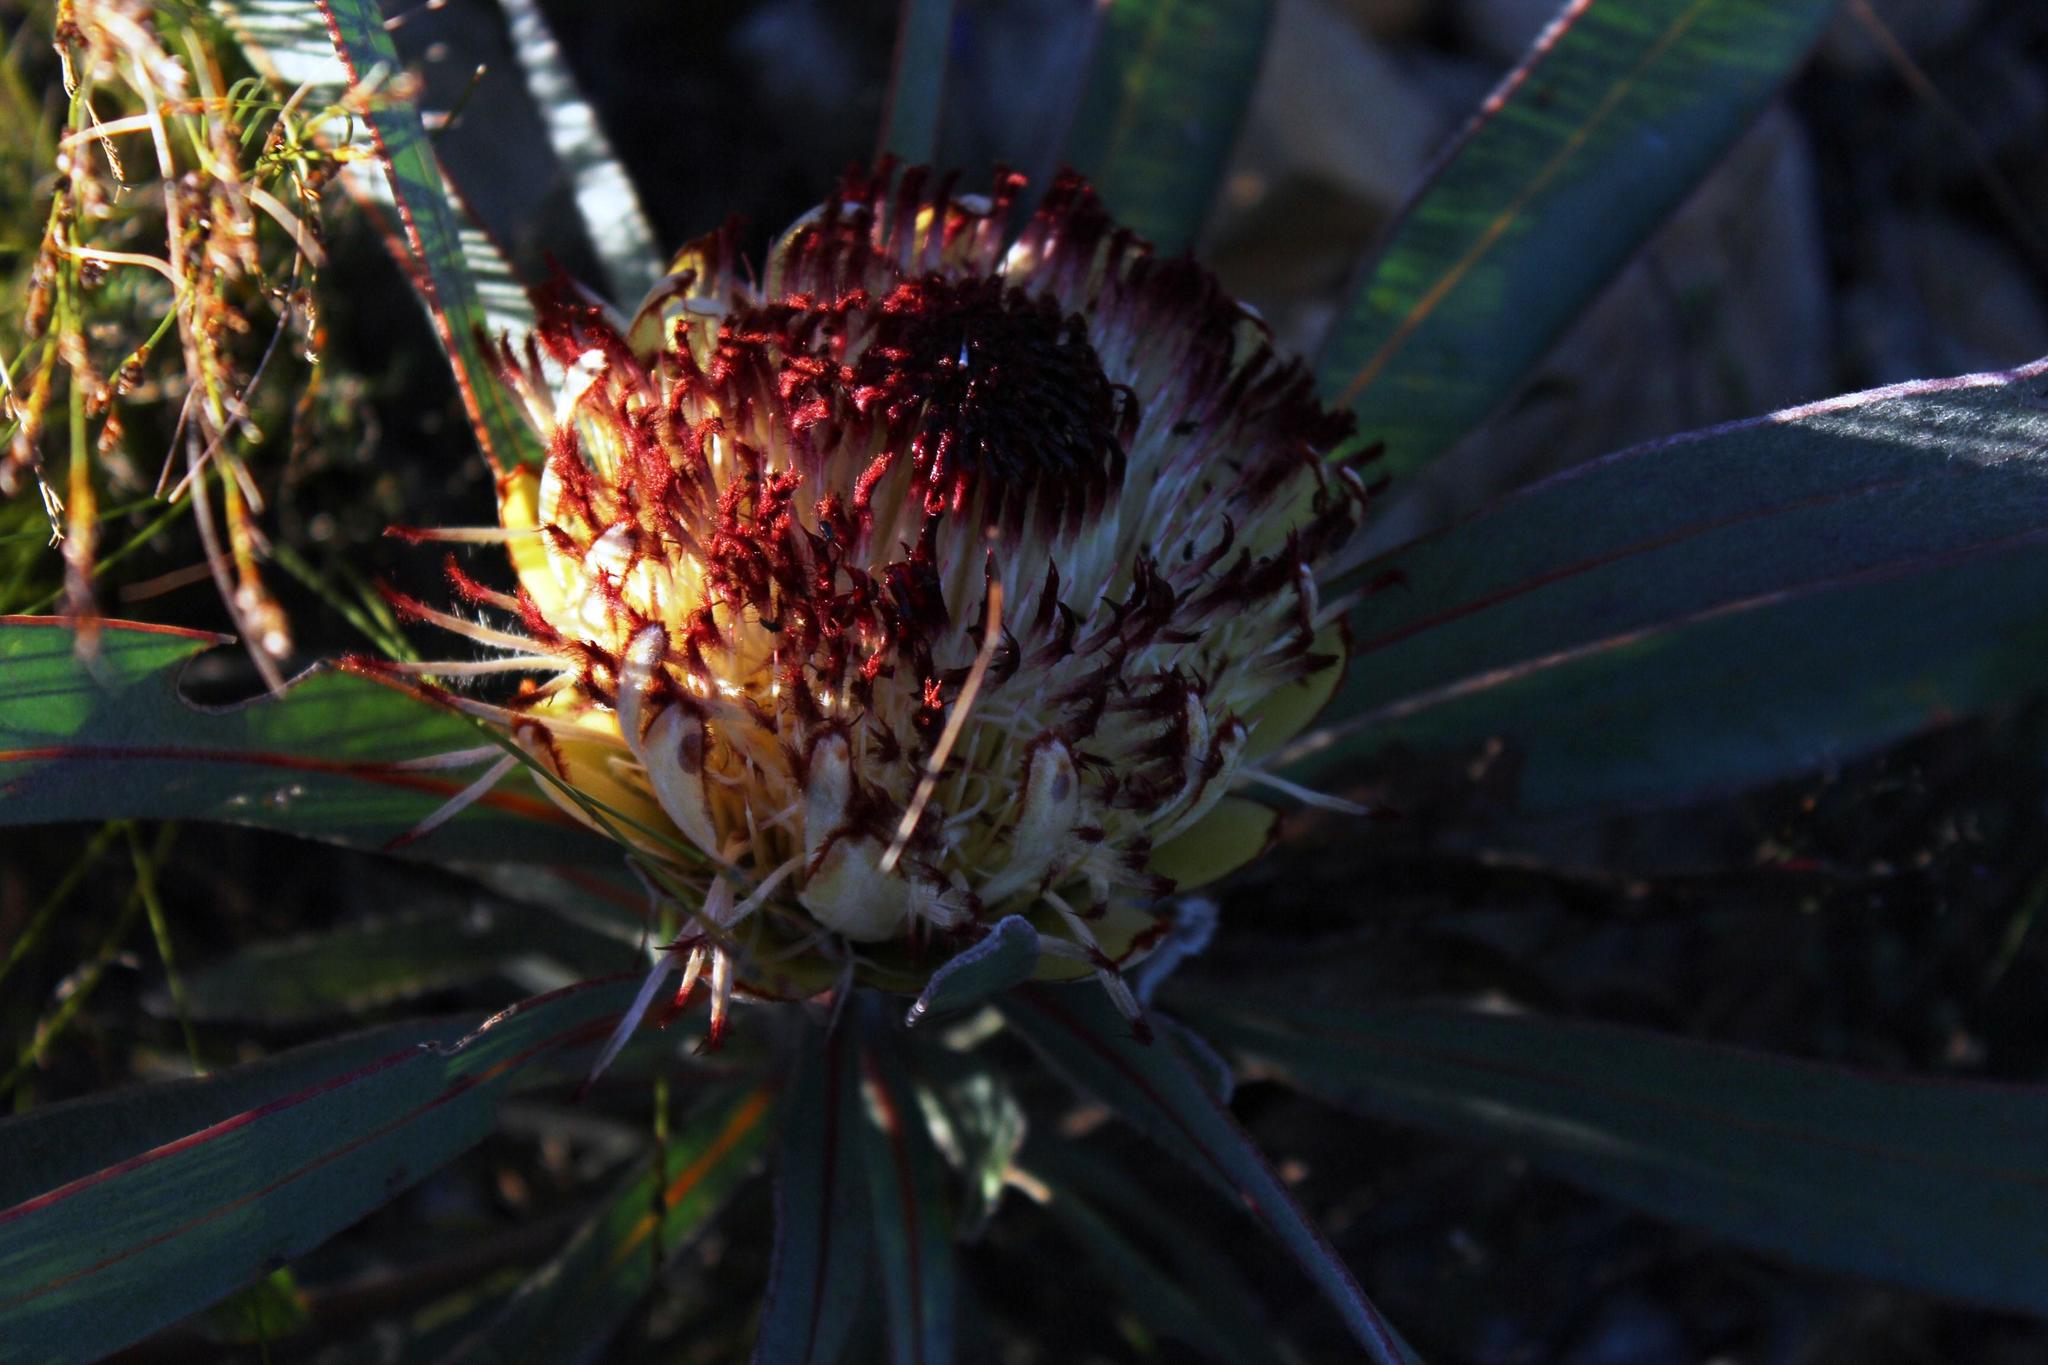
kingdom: Plantae
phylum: Tracheophyta
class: Magnoliopsida
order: Proteales
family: Proteaceae
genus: Protea
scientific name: Protea lorifolia
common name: Strap-leaved protea
